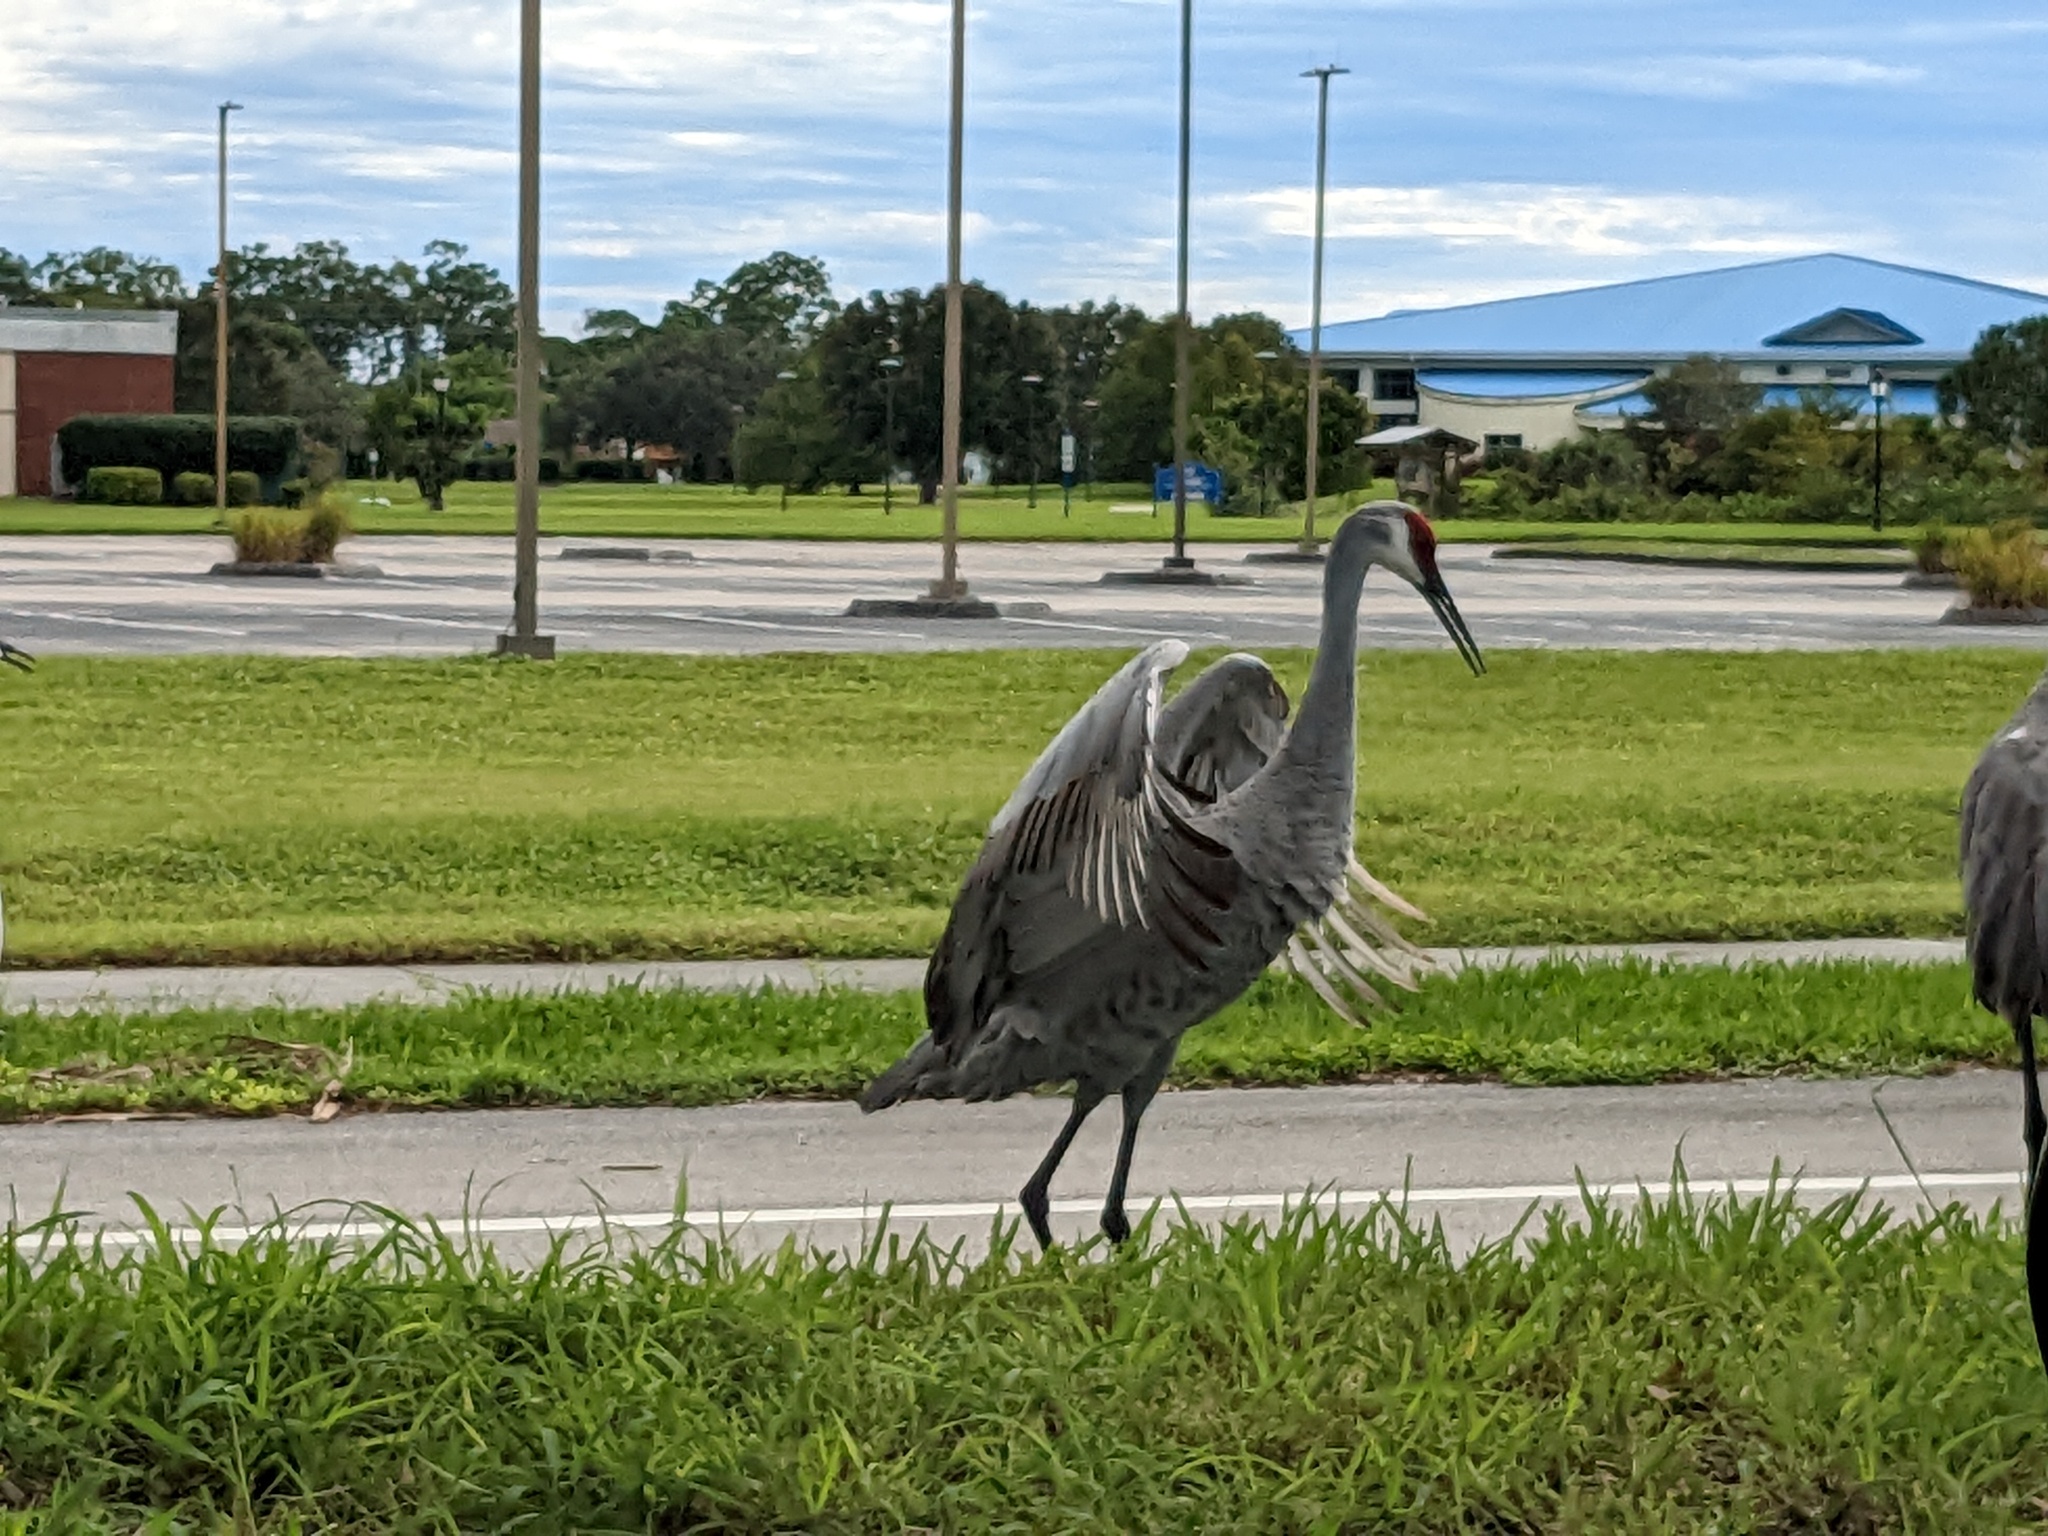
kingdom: Animalia
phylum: Chordata
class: Aves
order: Gruiformes
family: Gruidae
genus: Grus
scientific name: Grus canadensis
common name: Sandhill crane
